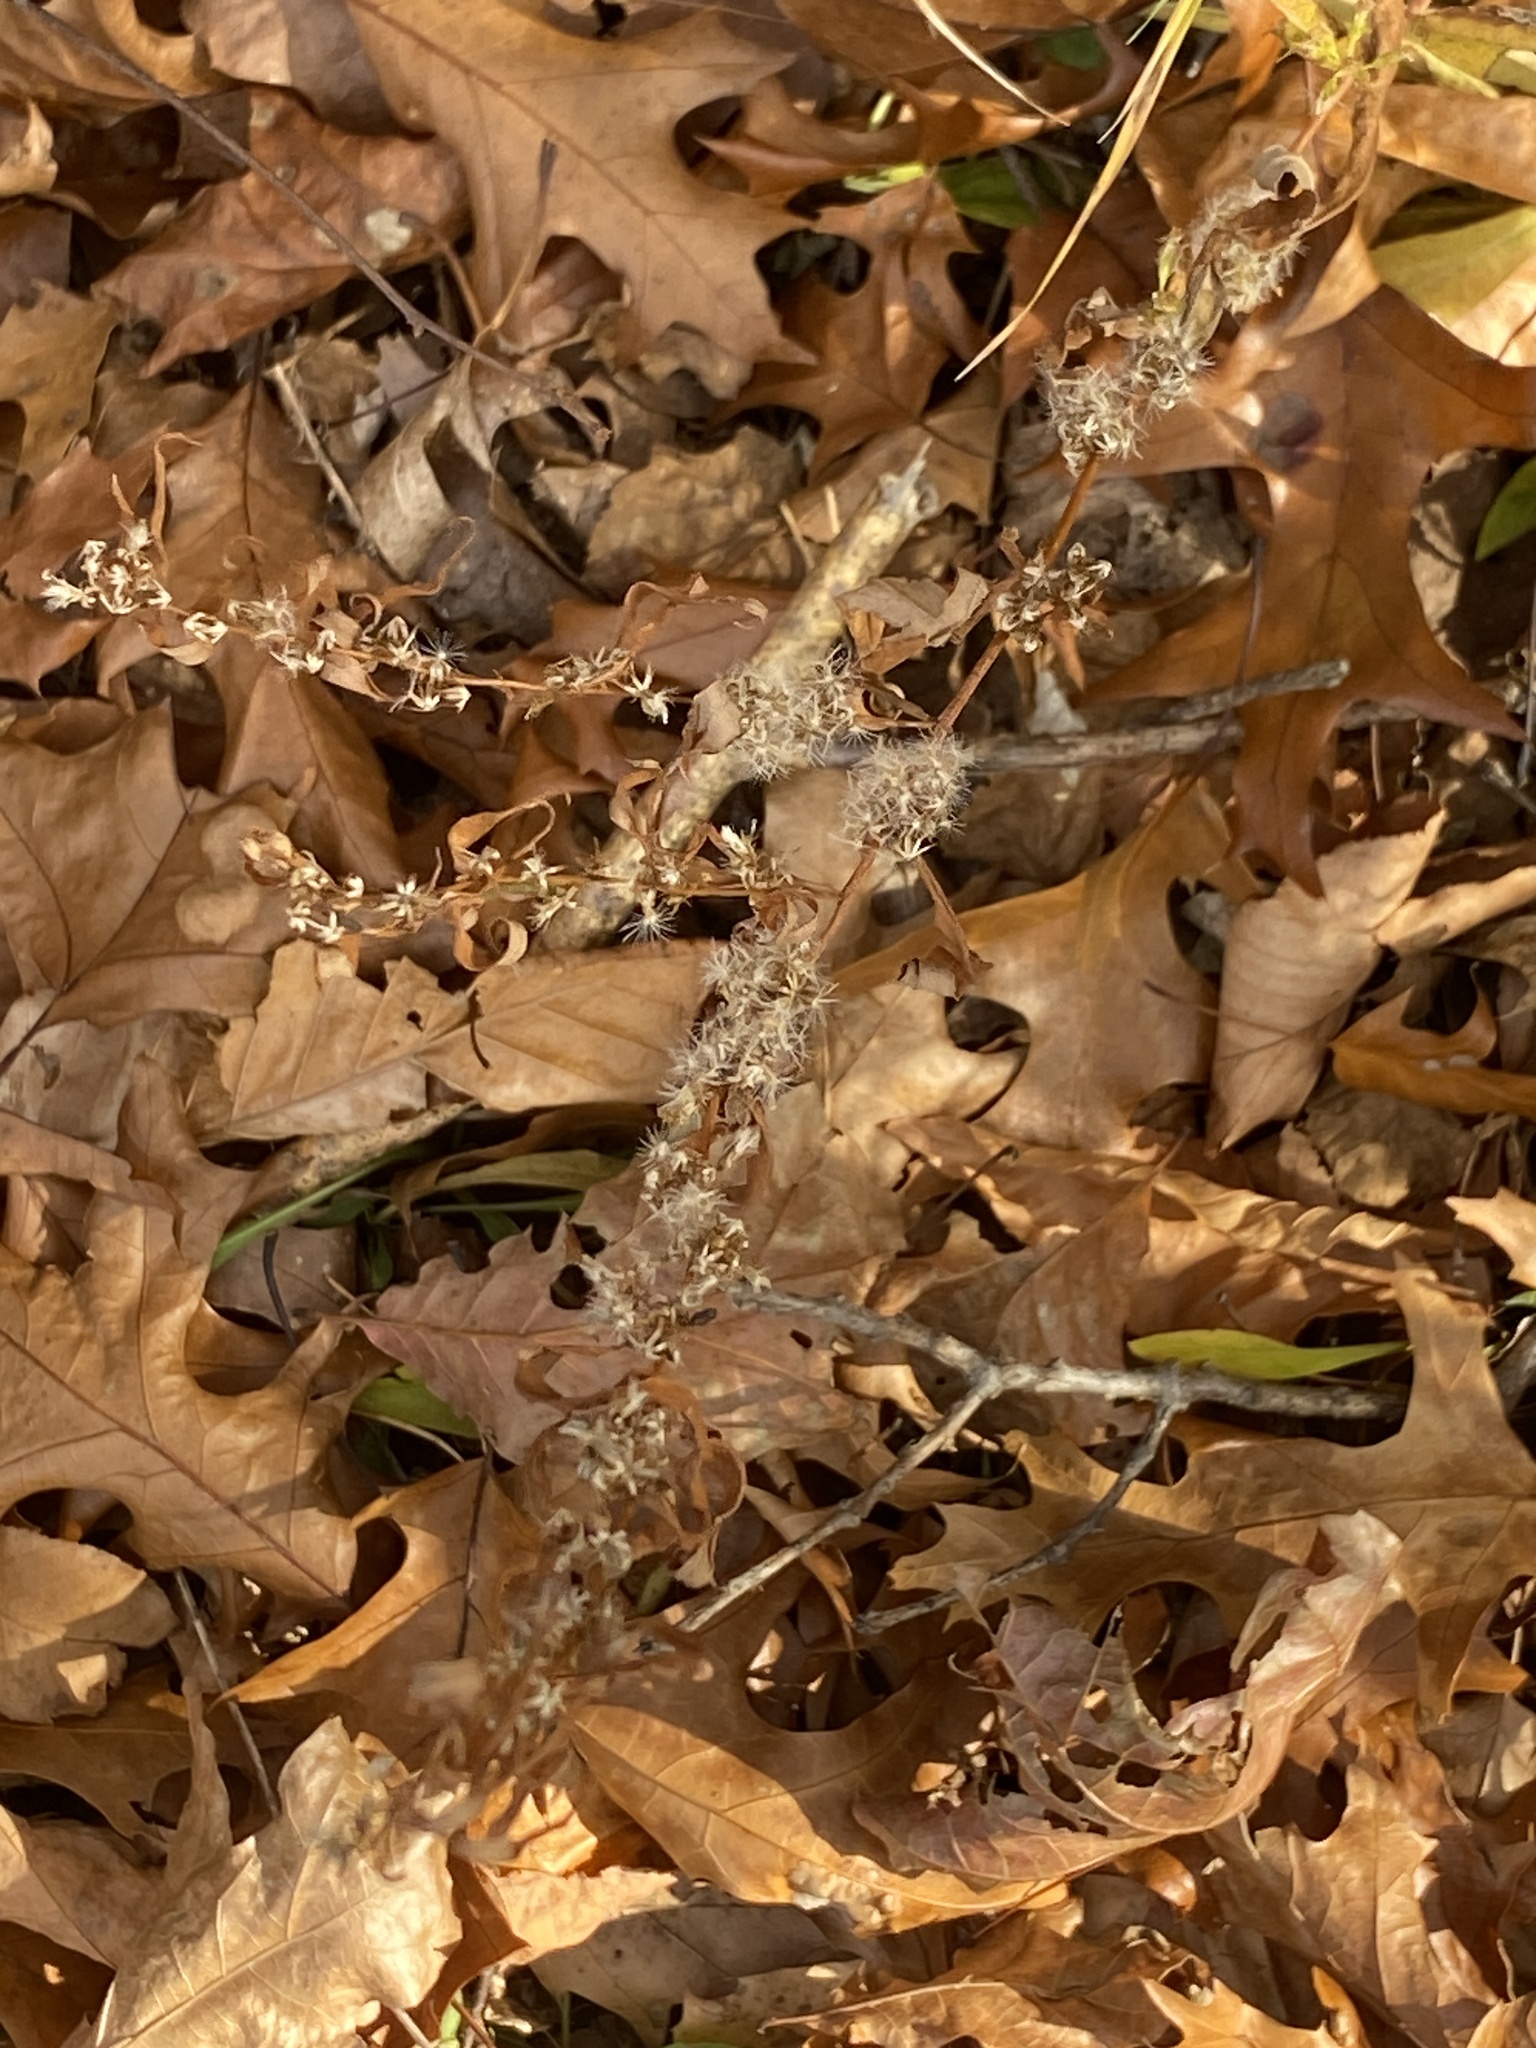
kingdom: Plantae
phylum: Tracheophyta
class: Magnoliopsida
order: Asterales
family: Asteraceae
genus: Solidago
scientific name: Solidago caesia
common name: Woodland goldenrod
